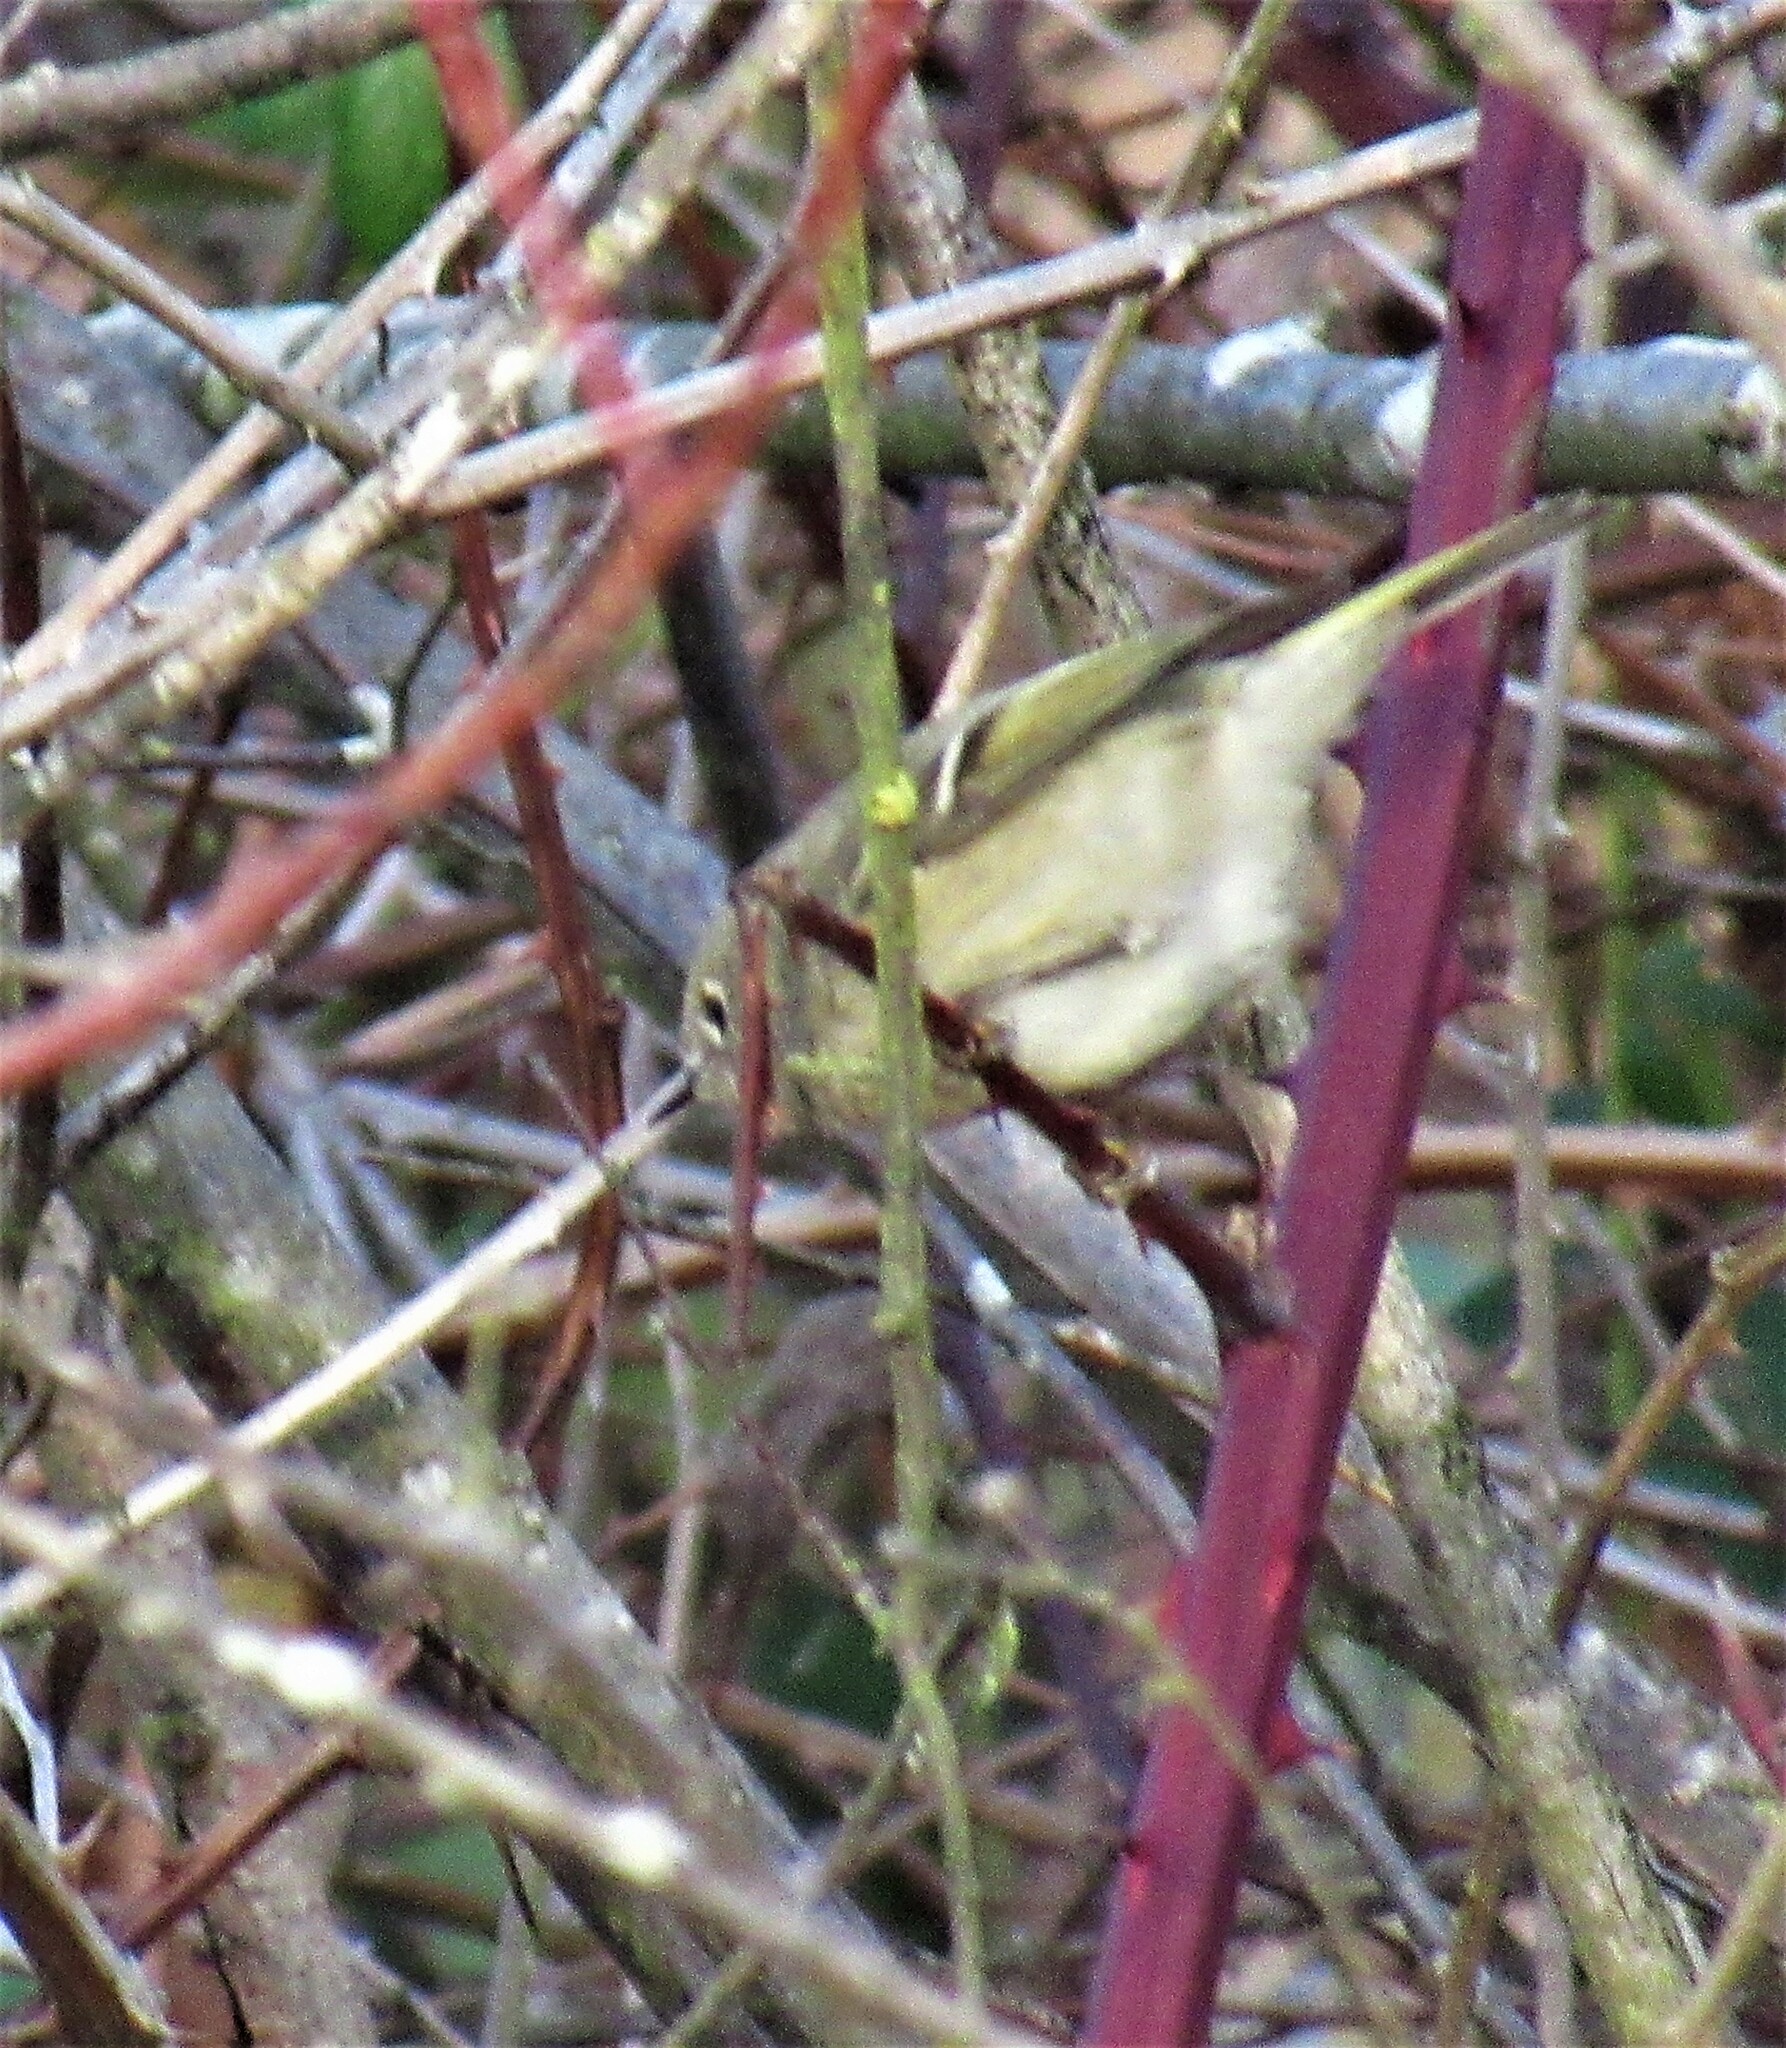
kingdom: Animalia
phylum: Chordata
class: Aves
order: Passeriformes
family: Regulidae
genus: Regulus
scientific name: Regulus calendula
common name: Ruby-crowned kinglet
